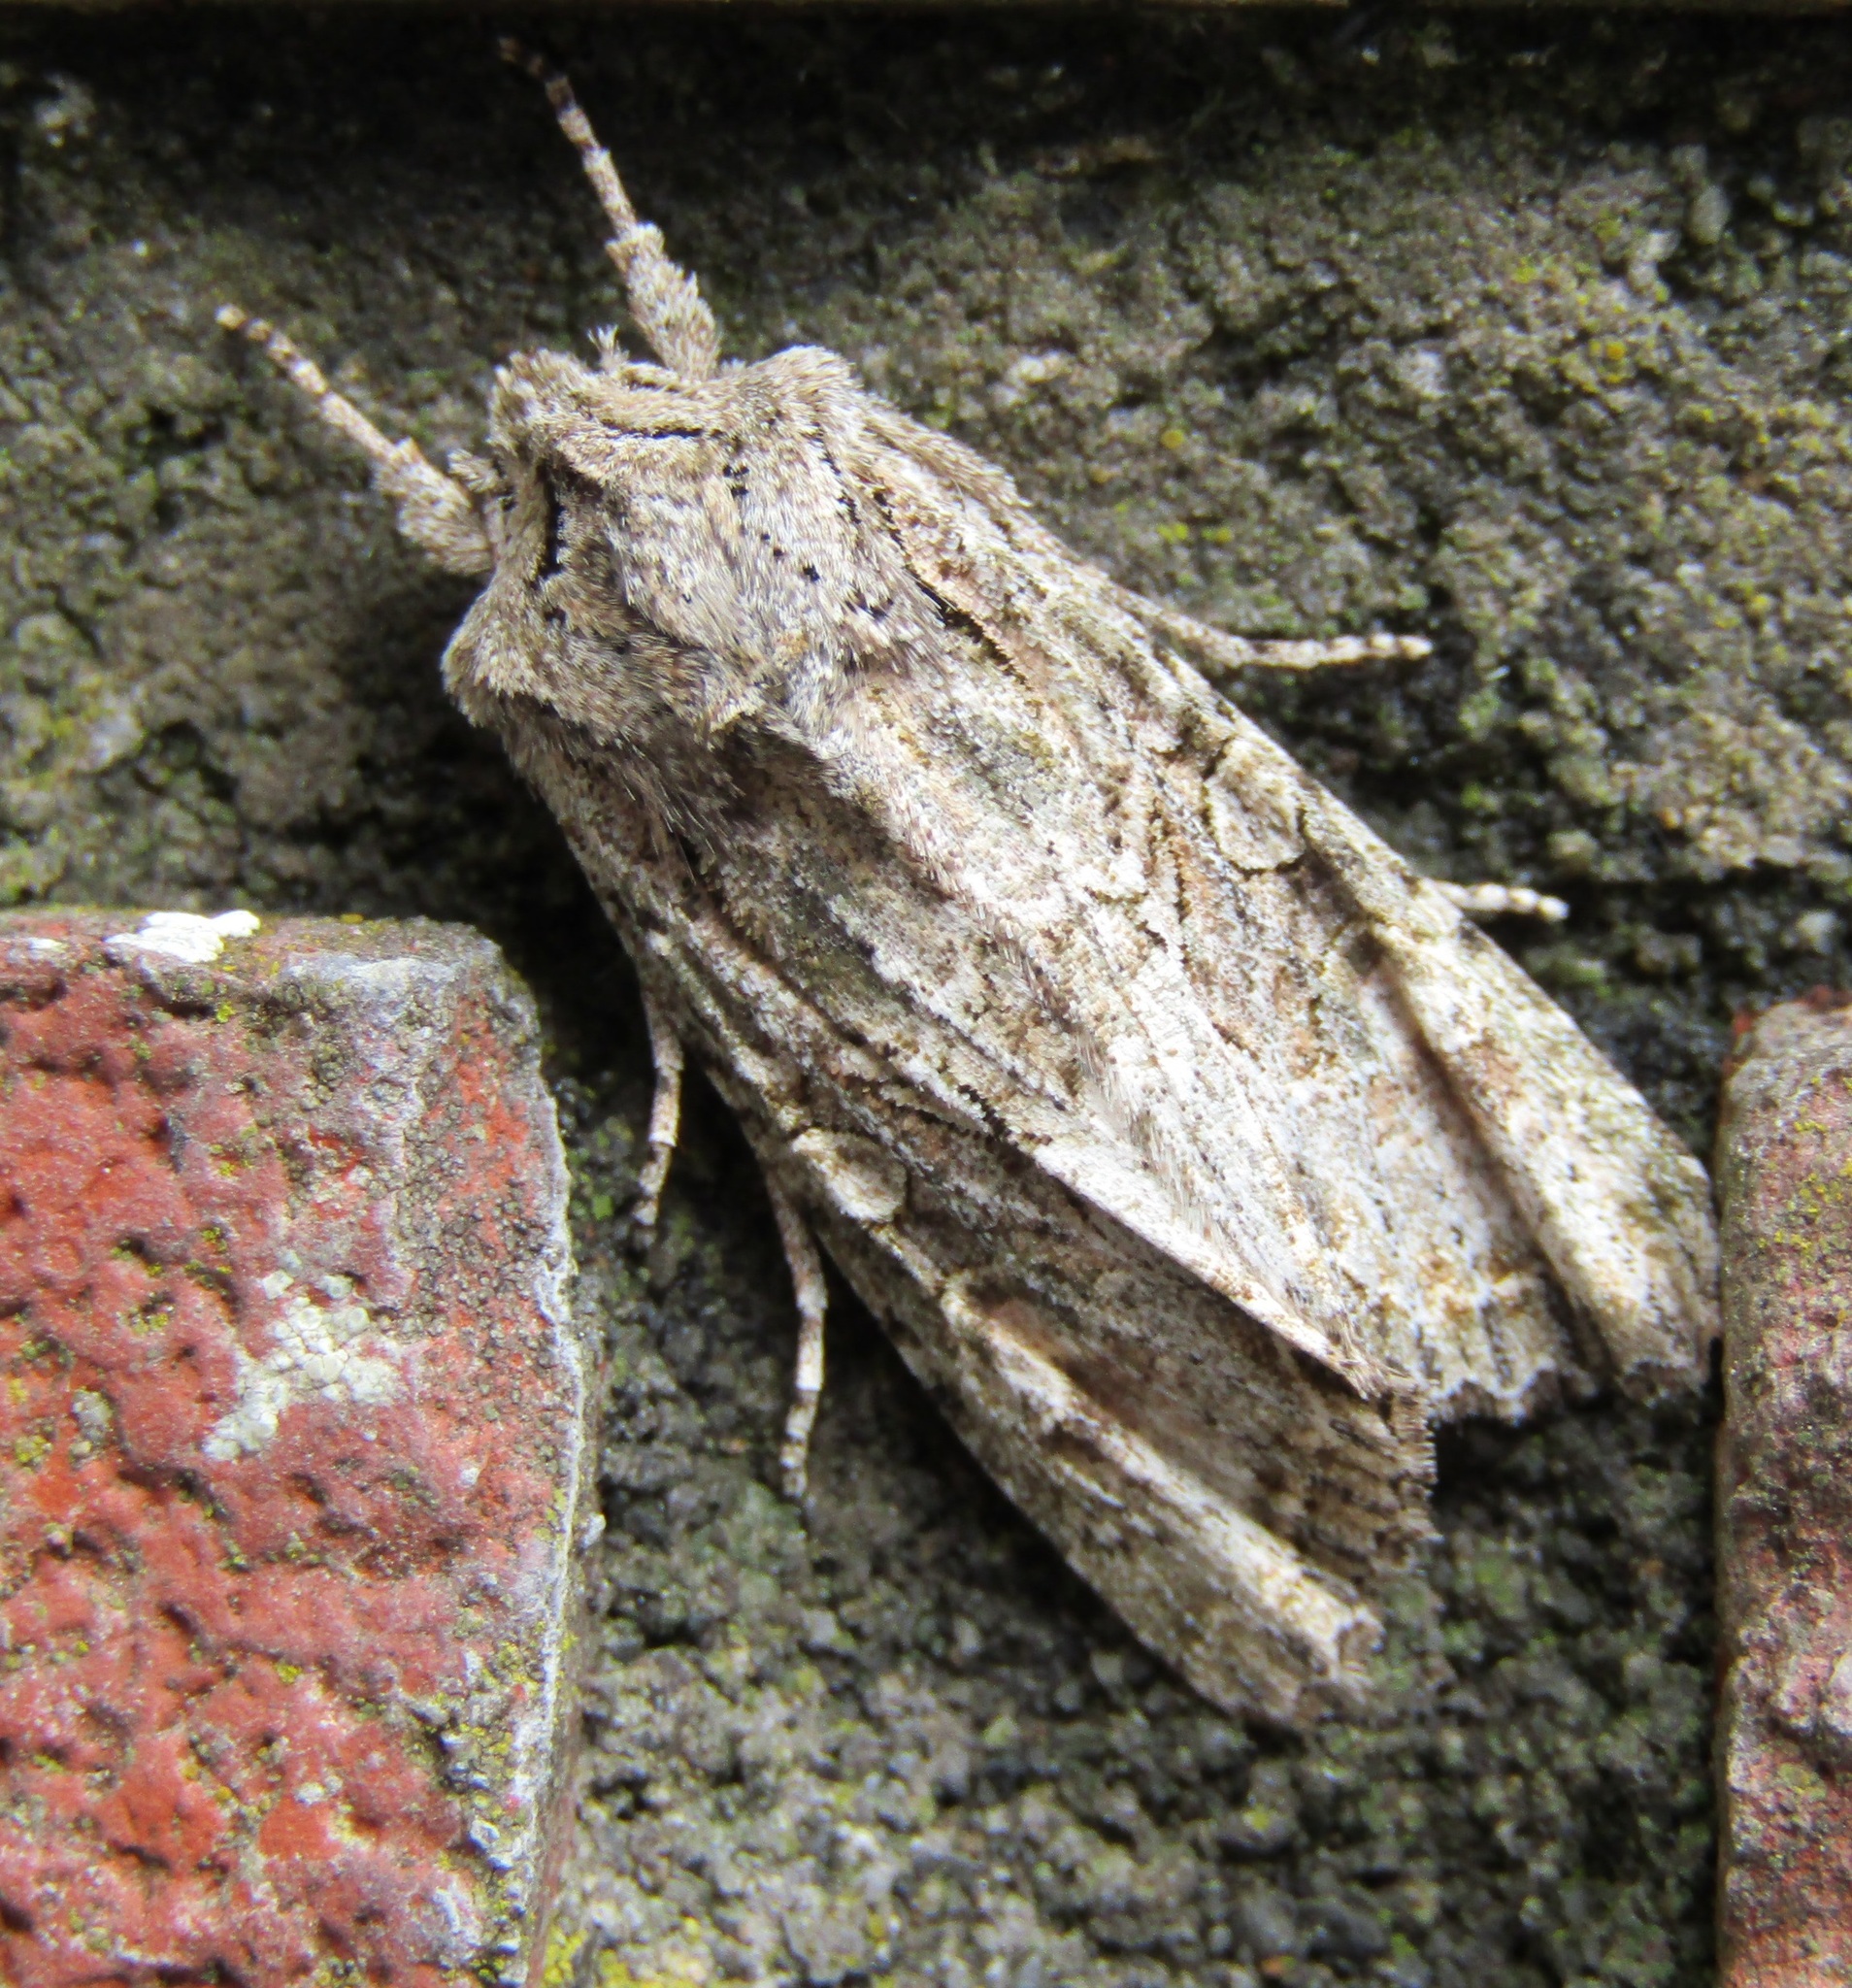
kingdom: Animalia
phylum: Arthropoda
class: Insecta
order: Lepidoptera
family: Noctuidae
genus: Ichneutica
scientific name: Ichneutica mutans
